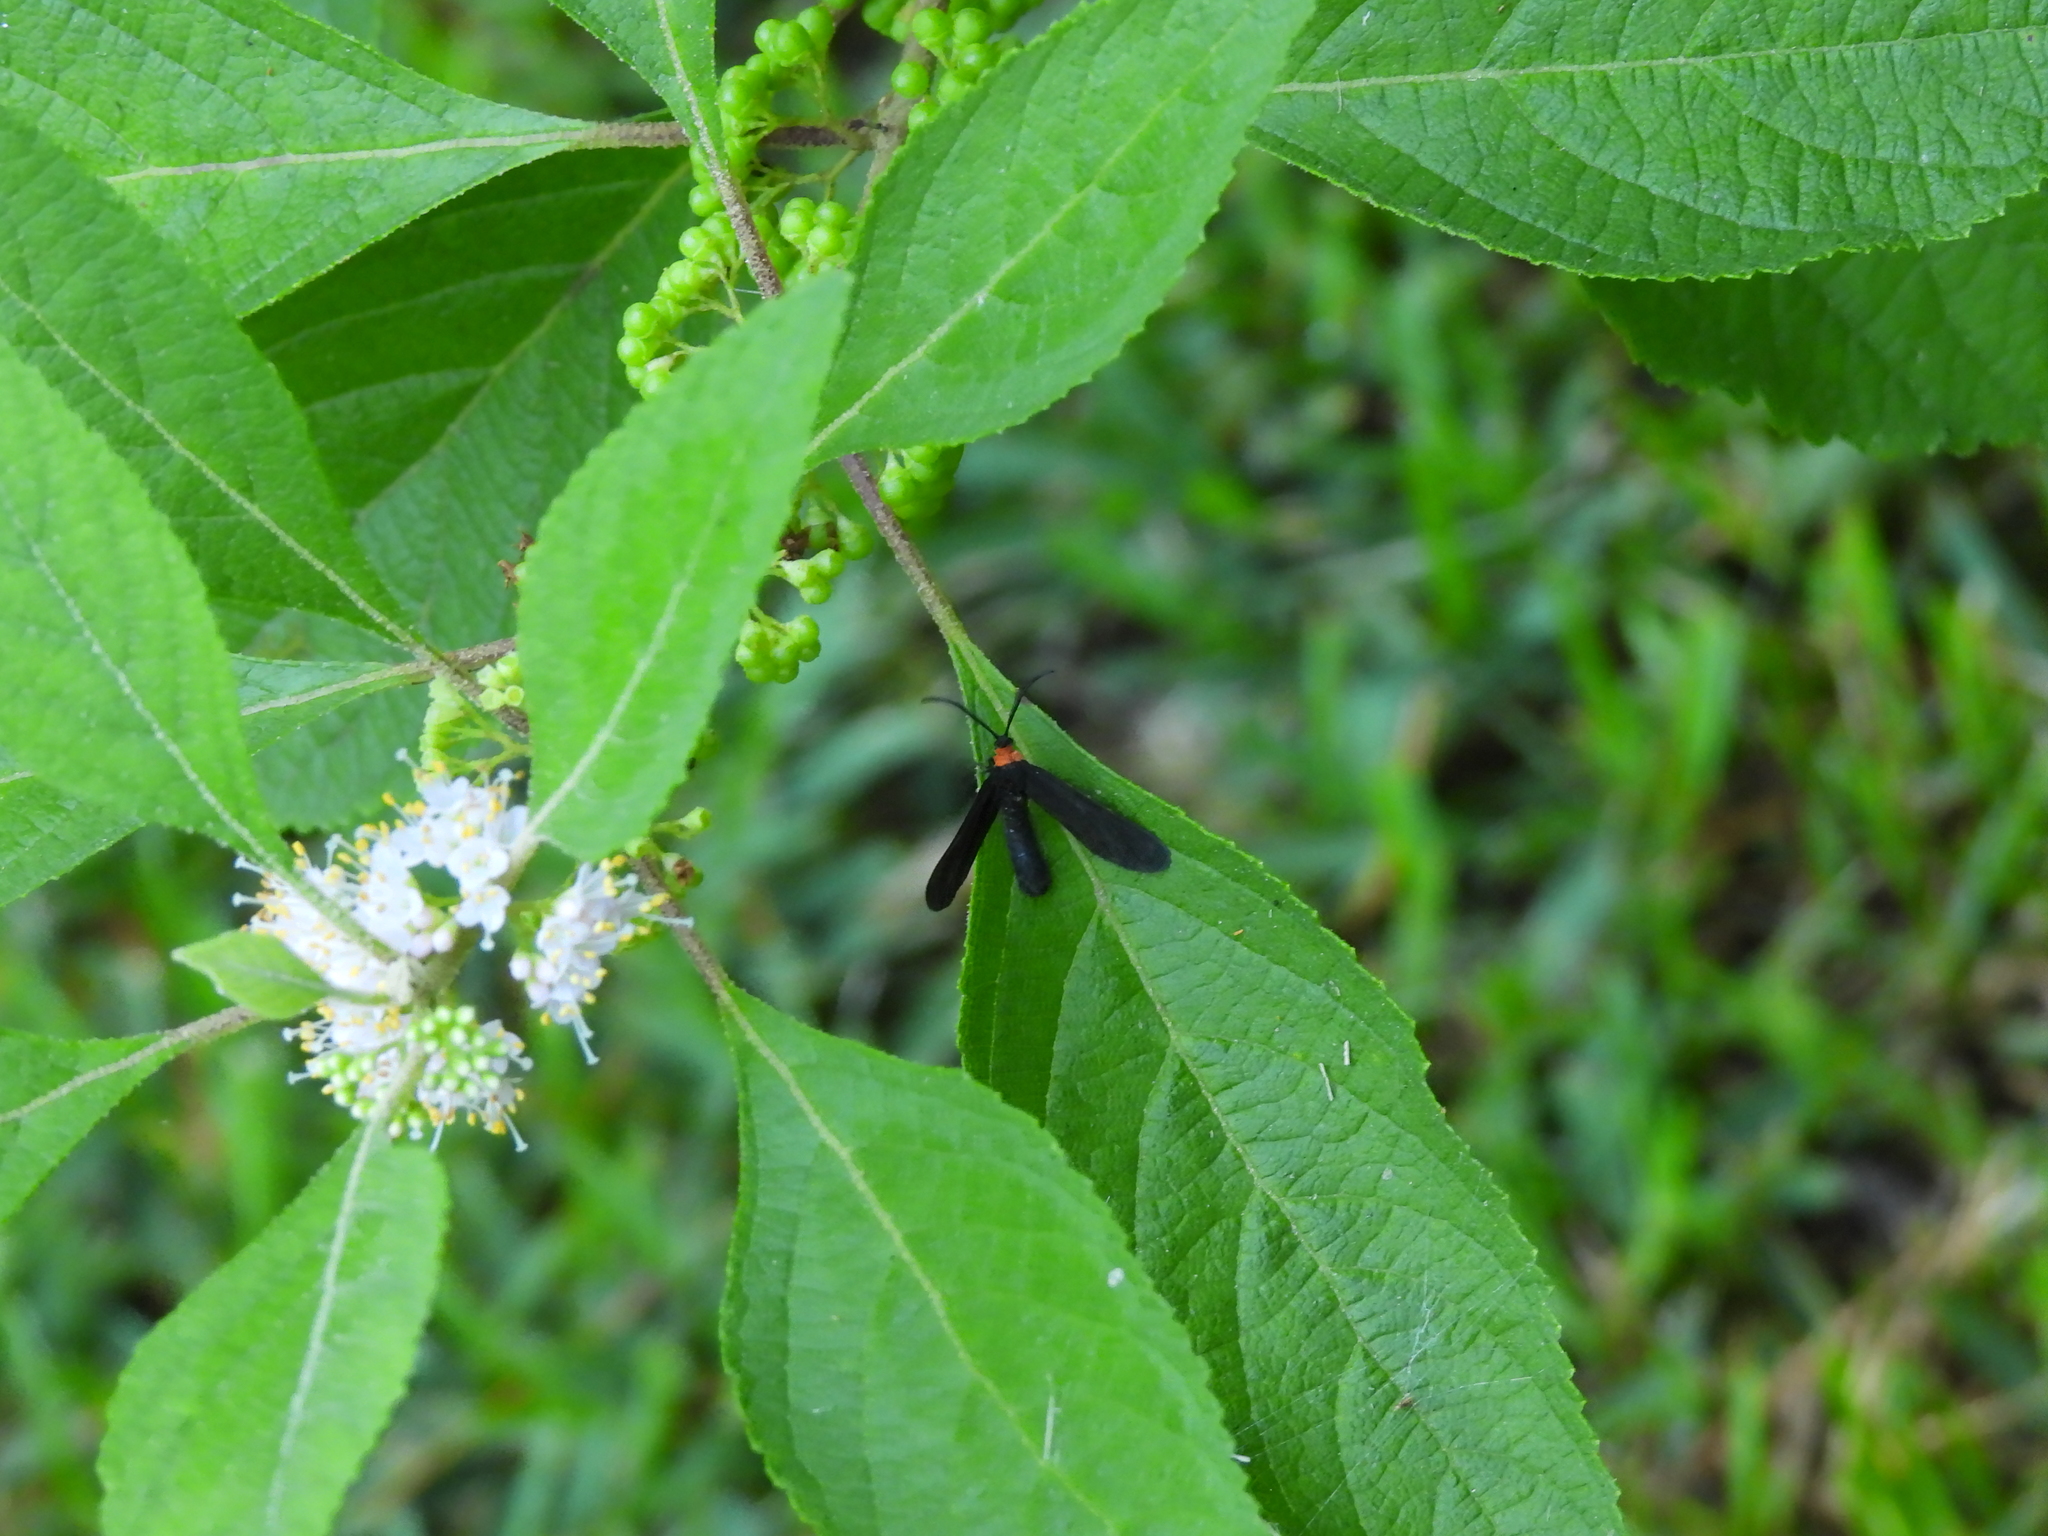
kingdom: Animalia
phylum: Arthropoda
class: Insecta
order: Lepidoptera
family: Zygaenidae
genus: Harrisina
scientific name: Harrisina americana
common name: Grapeleaf skeletonizer moth
